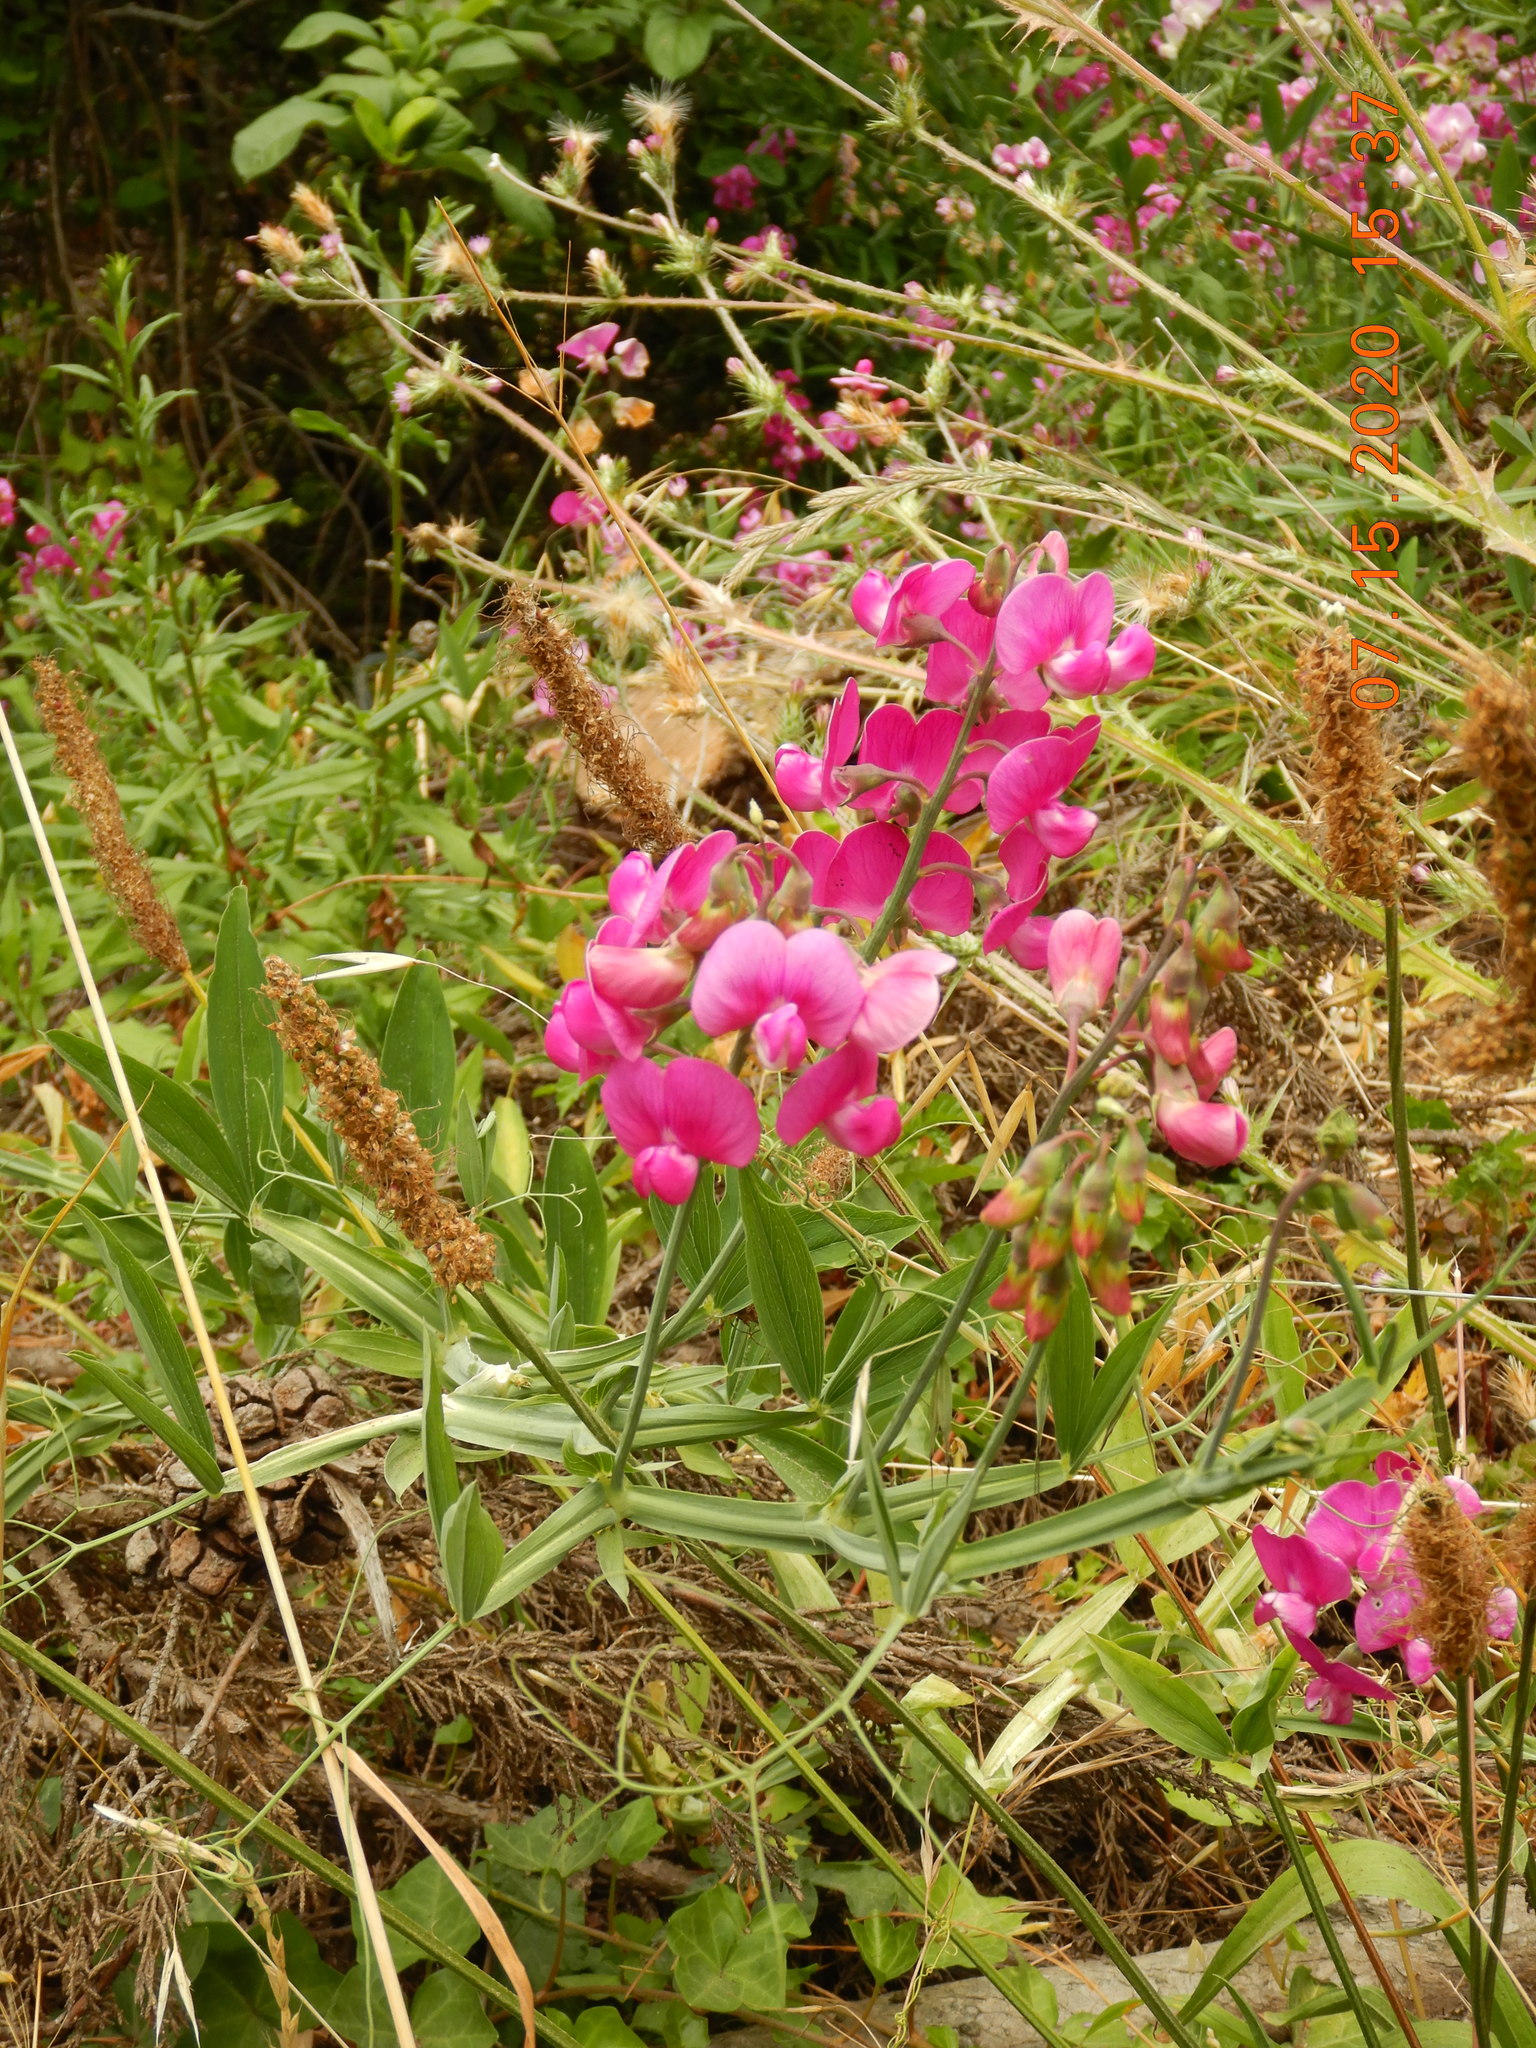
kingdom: Plantae
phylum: Tracheophyta
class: Magnoliopsida
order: Fabales
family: Fabaceae
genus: Lathyrus
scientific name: Lathyrus latifolius
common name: Perennial pea
